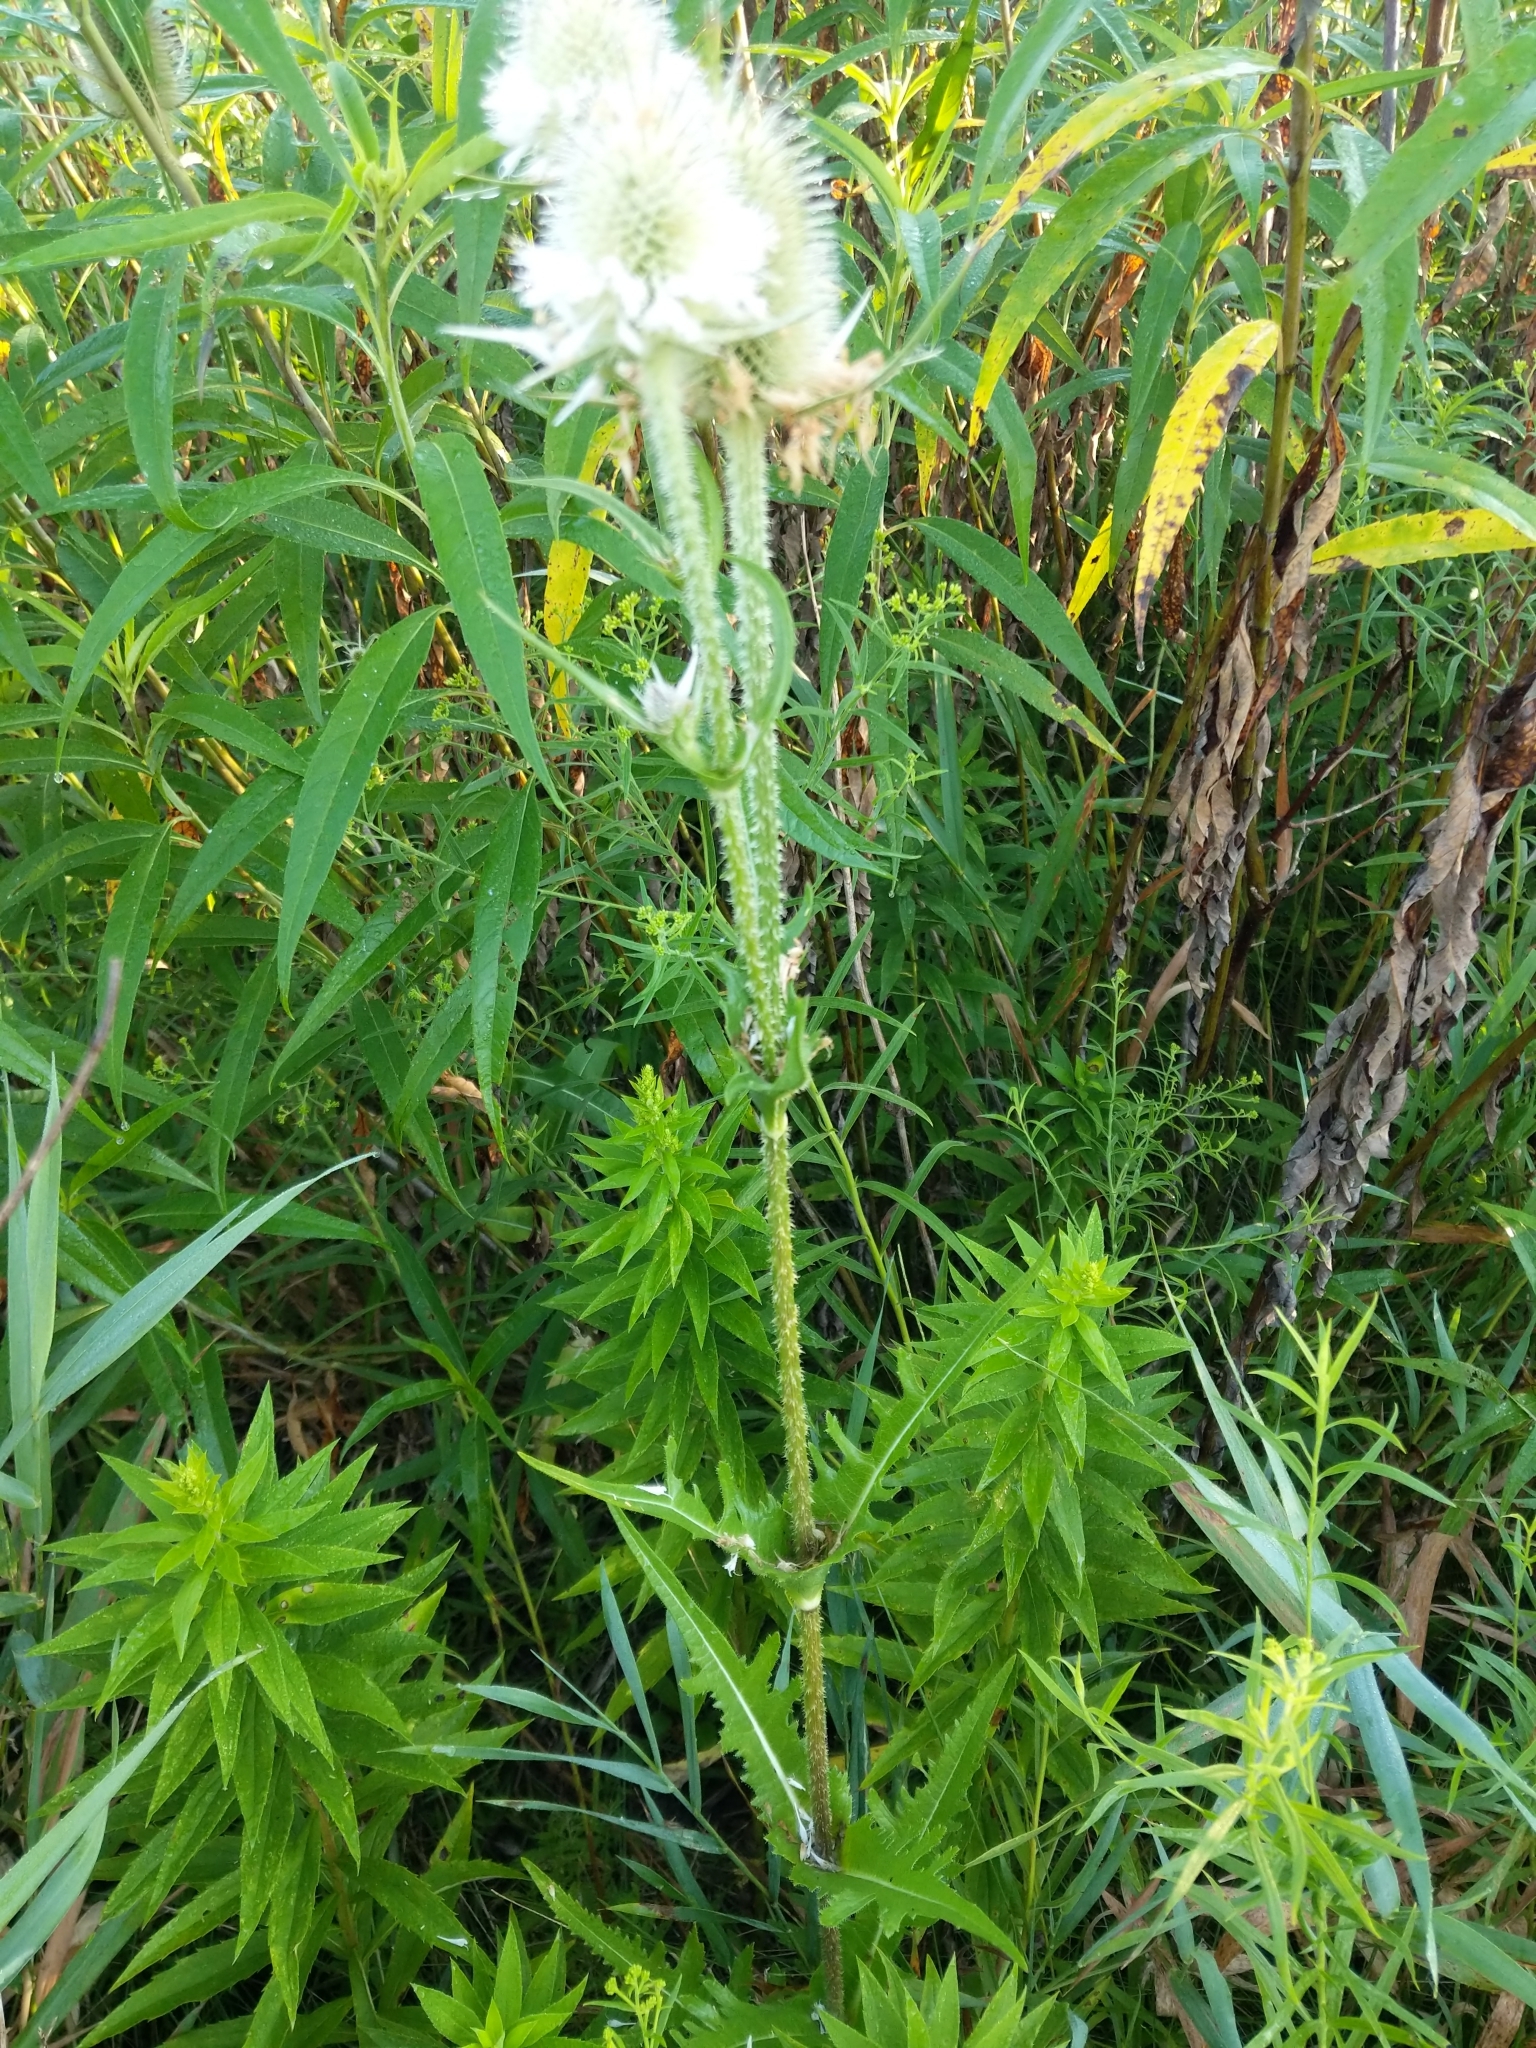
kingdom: Plantae
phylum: Tracheophyta
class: Magnoliopsida
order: Dipsacales
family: Caprifoliaceae
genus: Dipsacus
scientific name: Dipsacus laciniatus
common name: Cut-leaved teasel
